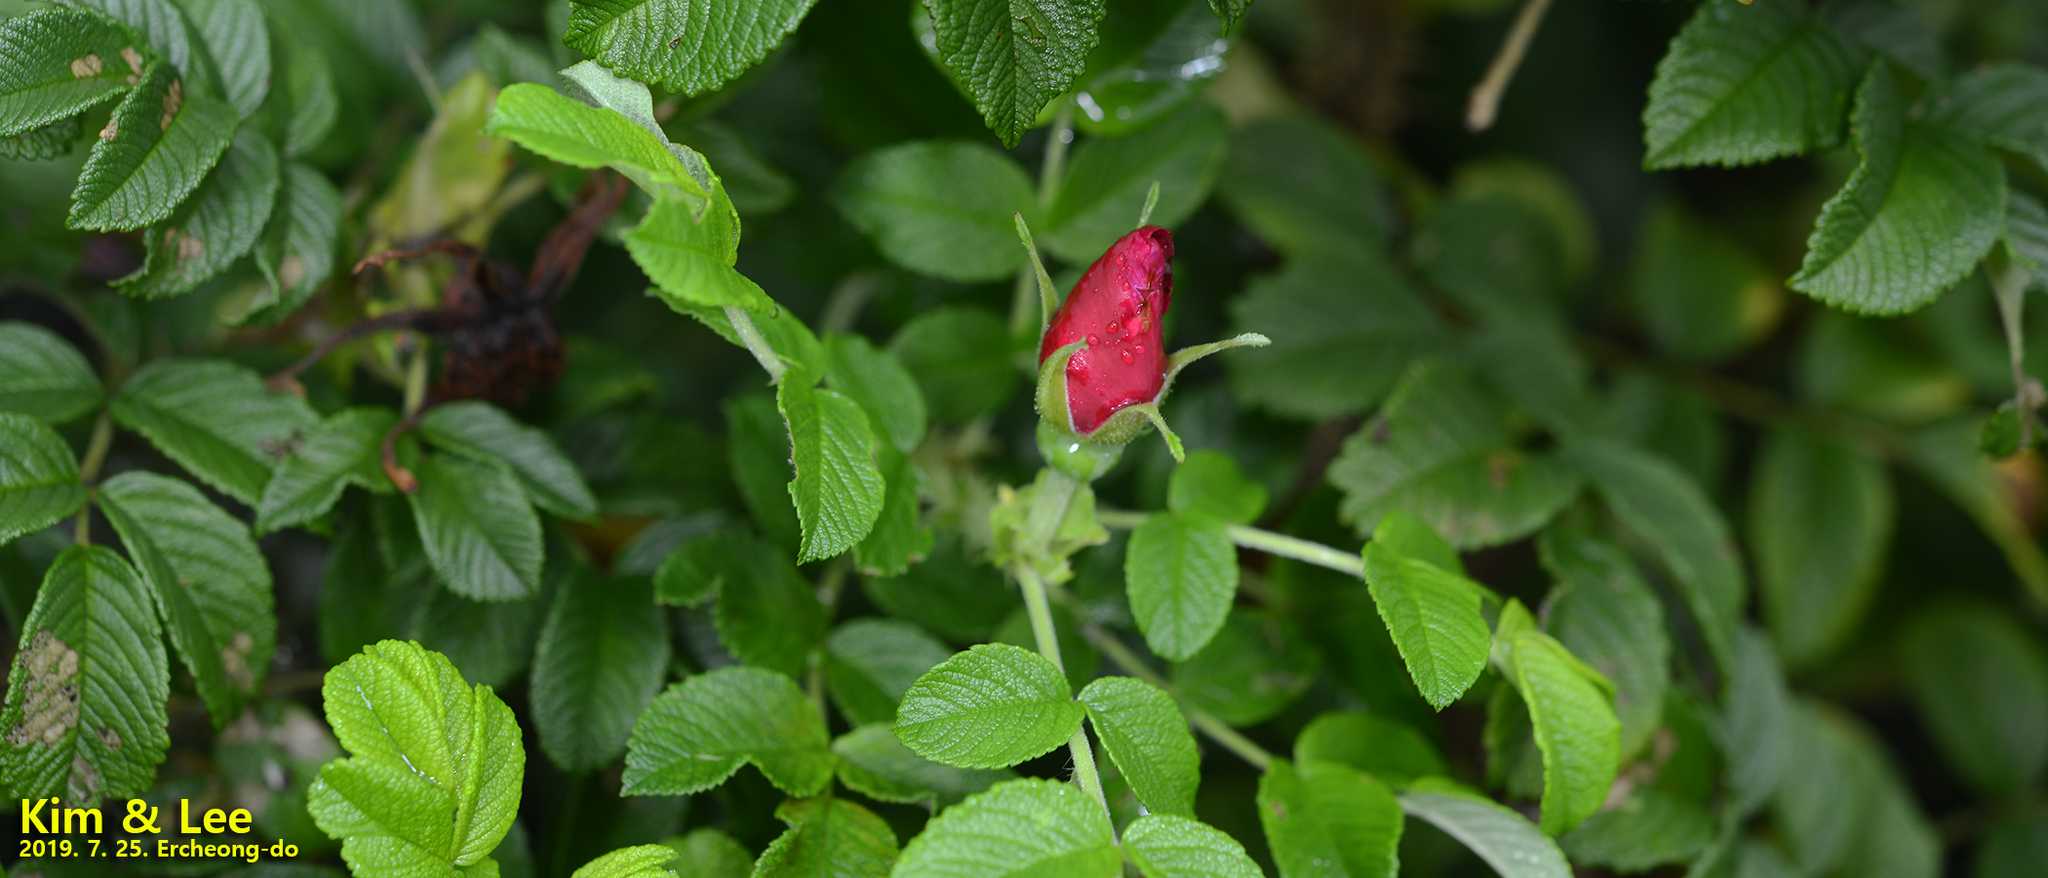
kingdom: Plantae
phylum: Tracheophyta
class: Magnoliopsida
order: Rosales
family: Rosaceae
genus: Rosa
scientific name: Rosa rugosa
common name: Japanese rose
